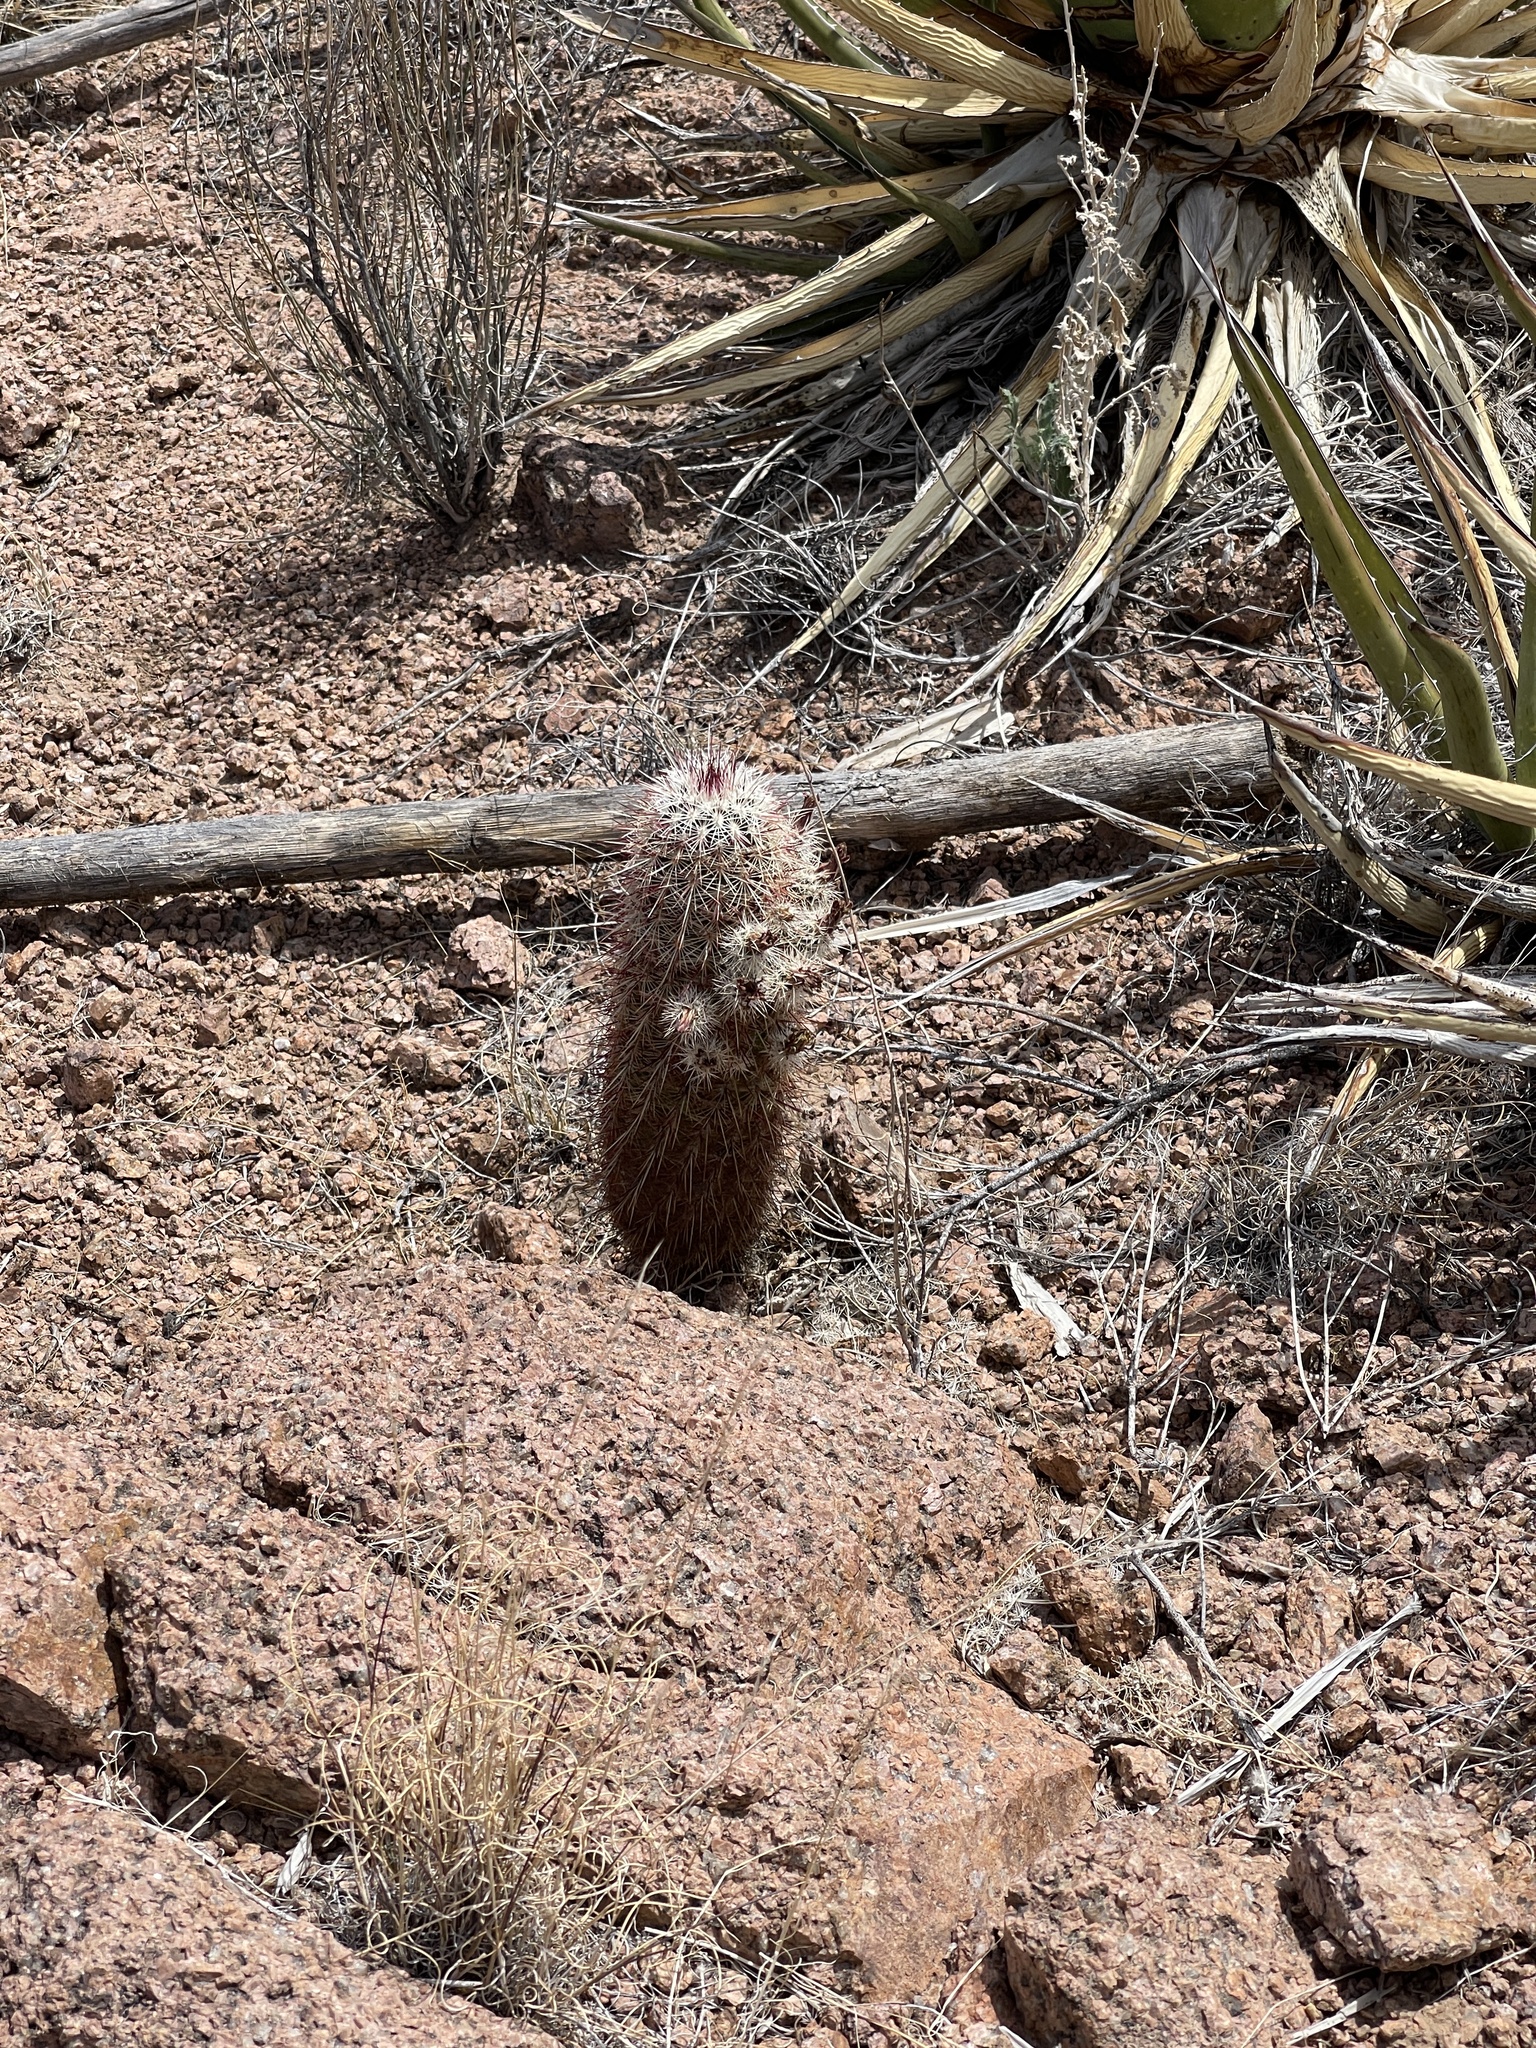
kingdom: Plantae
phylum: Tracheophyta
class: Magnoliopsida
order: Caryophyllales
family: Cactaceae
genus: Echinocereus
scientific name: Echinocereus viridiflorus
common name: Nylon hedgehog cactus
